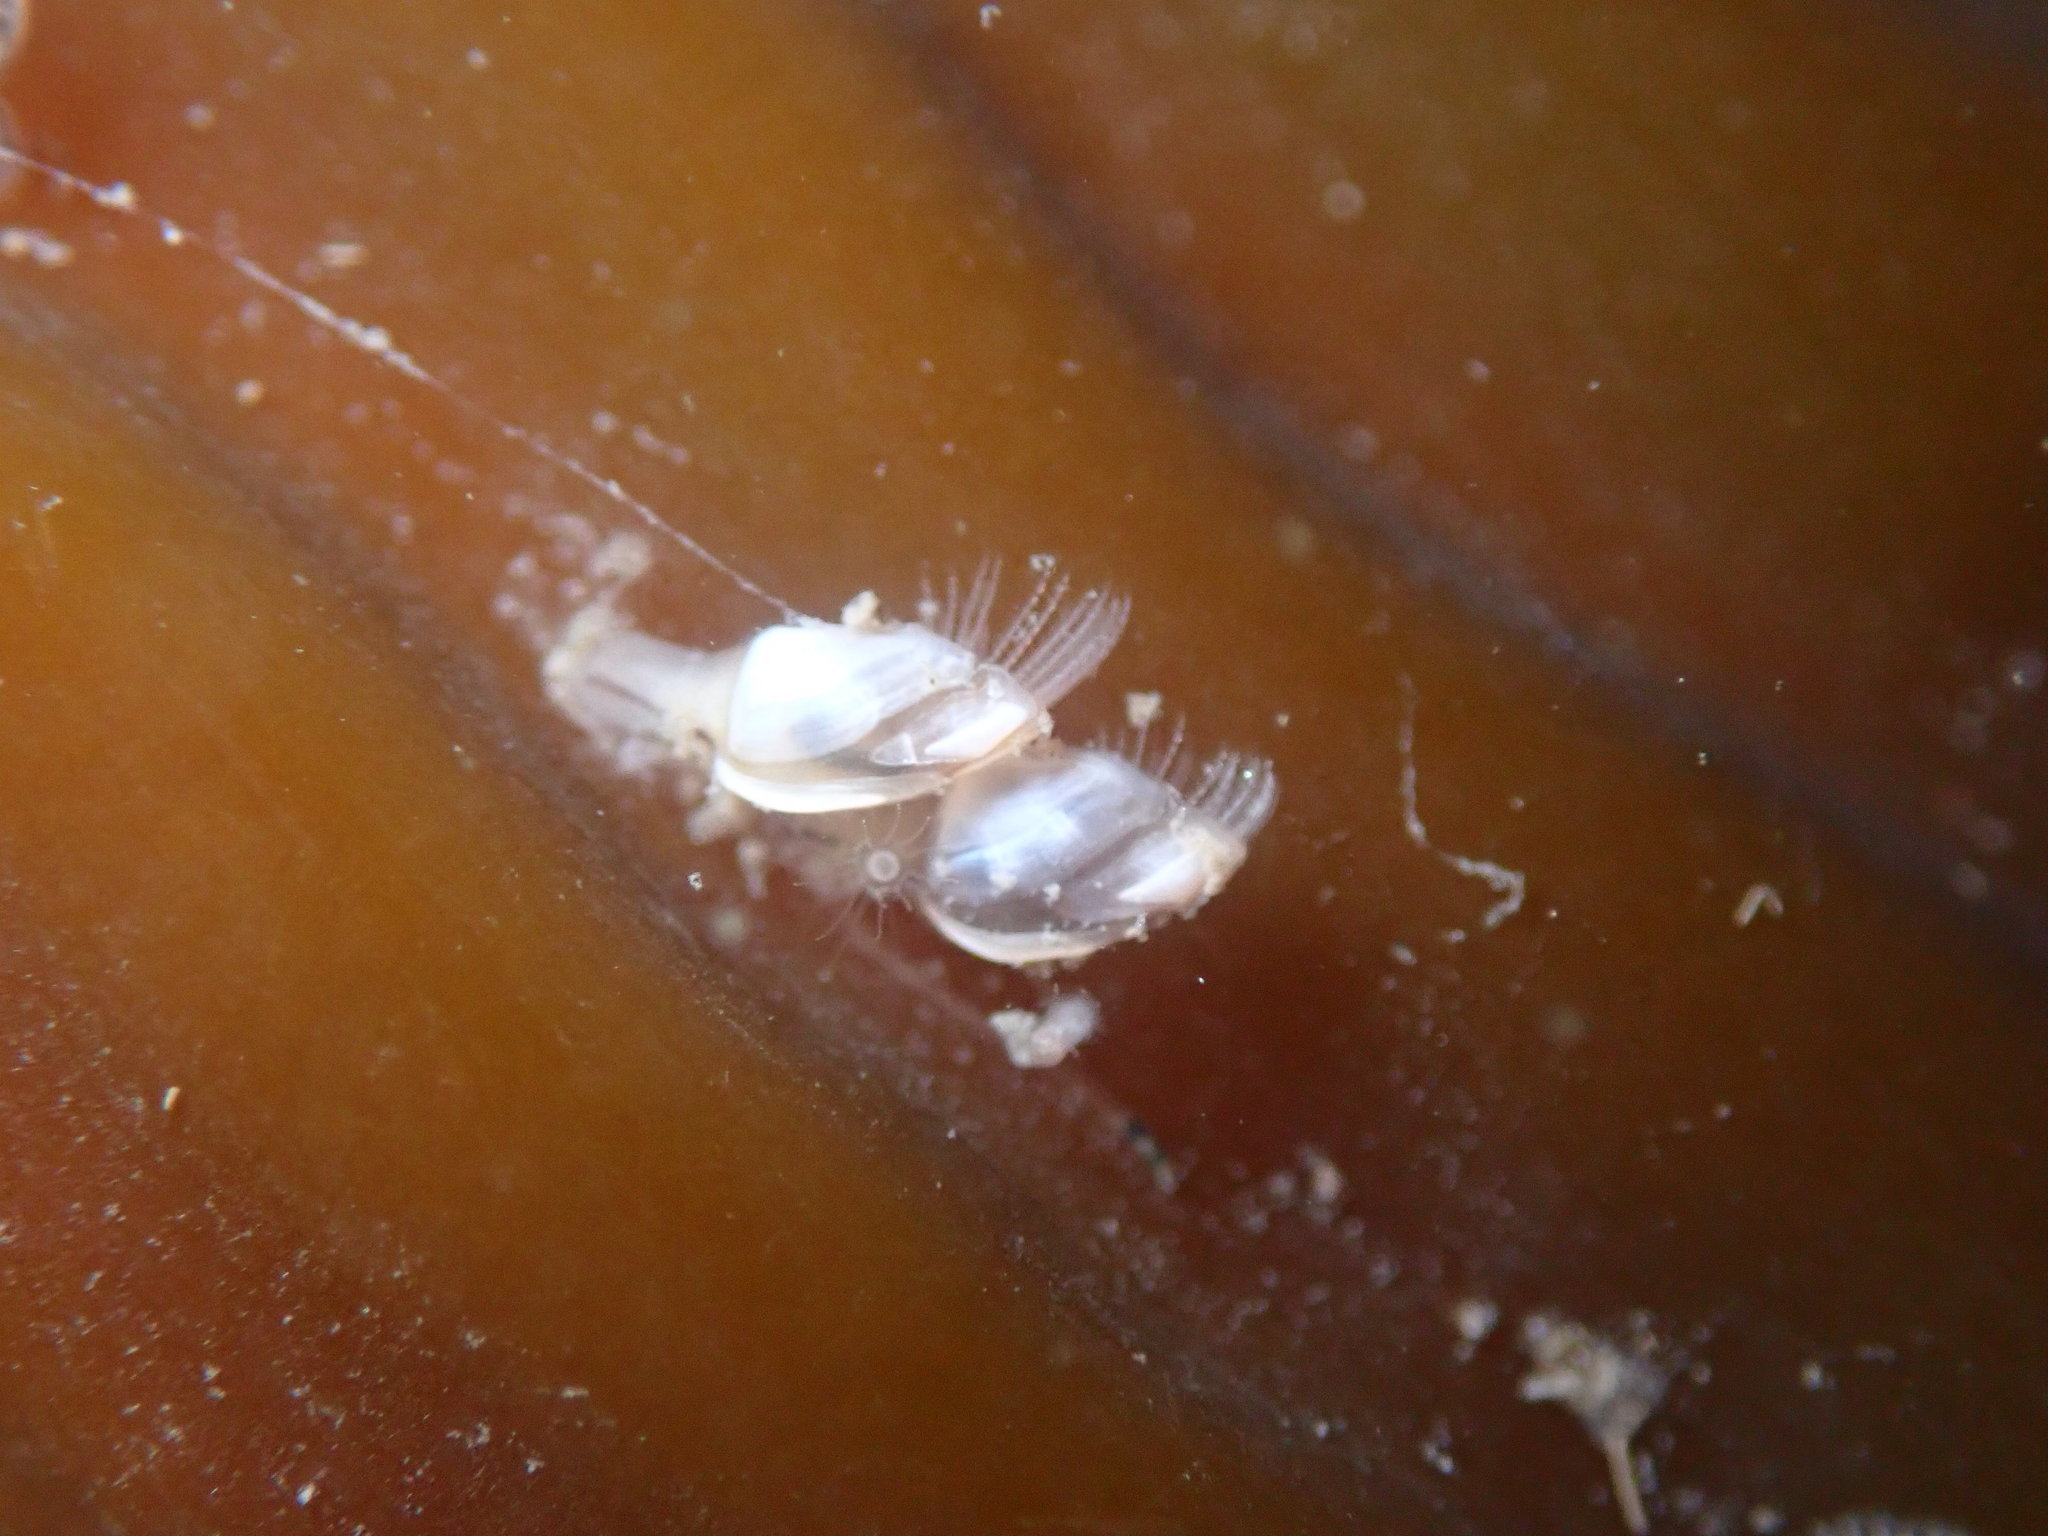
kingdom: Animalia
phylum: Arthropoda
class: Maxillopoda
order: Pedunculata
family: Lepadidae
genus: Lepas
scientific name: Lepas pacifica
